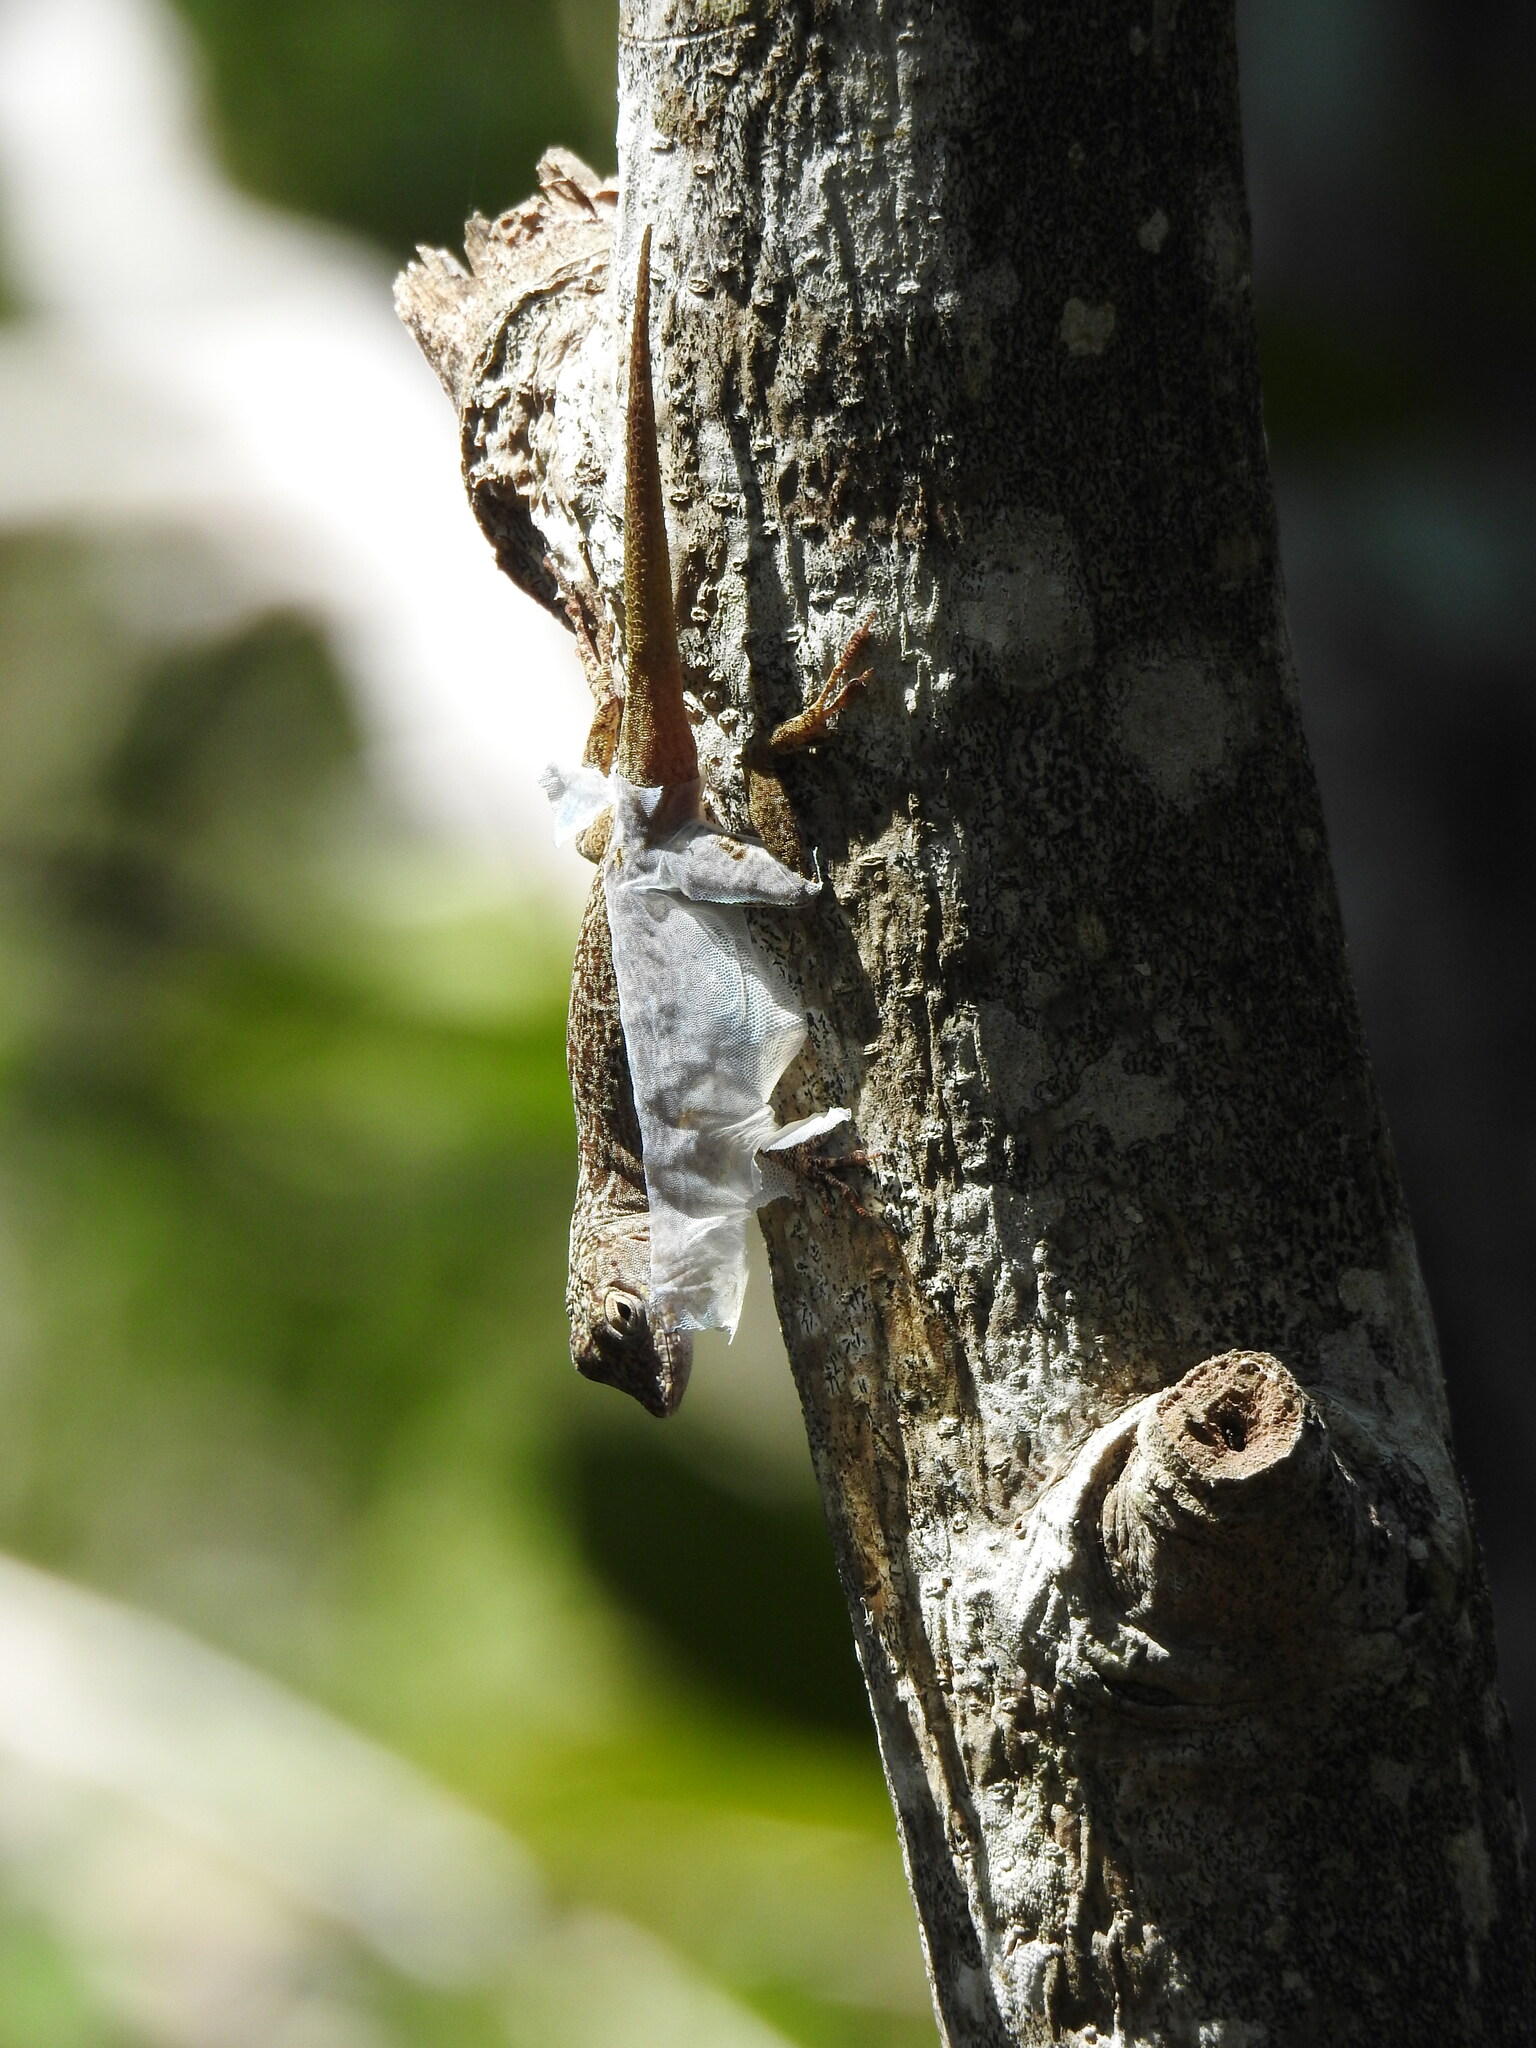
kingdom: Animalia
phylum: Chordata
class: Squamata
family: Dactyloidae
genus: Anolis
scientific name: Anolis distichus
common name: Bark anole
